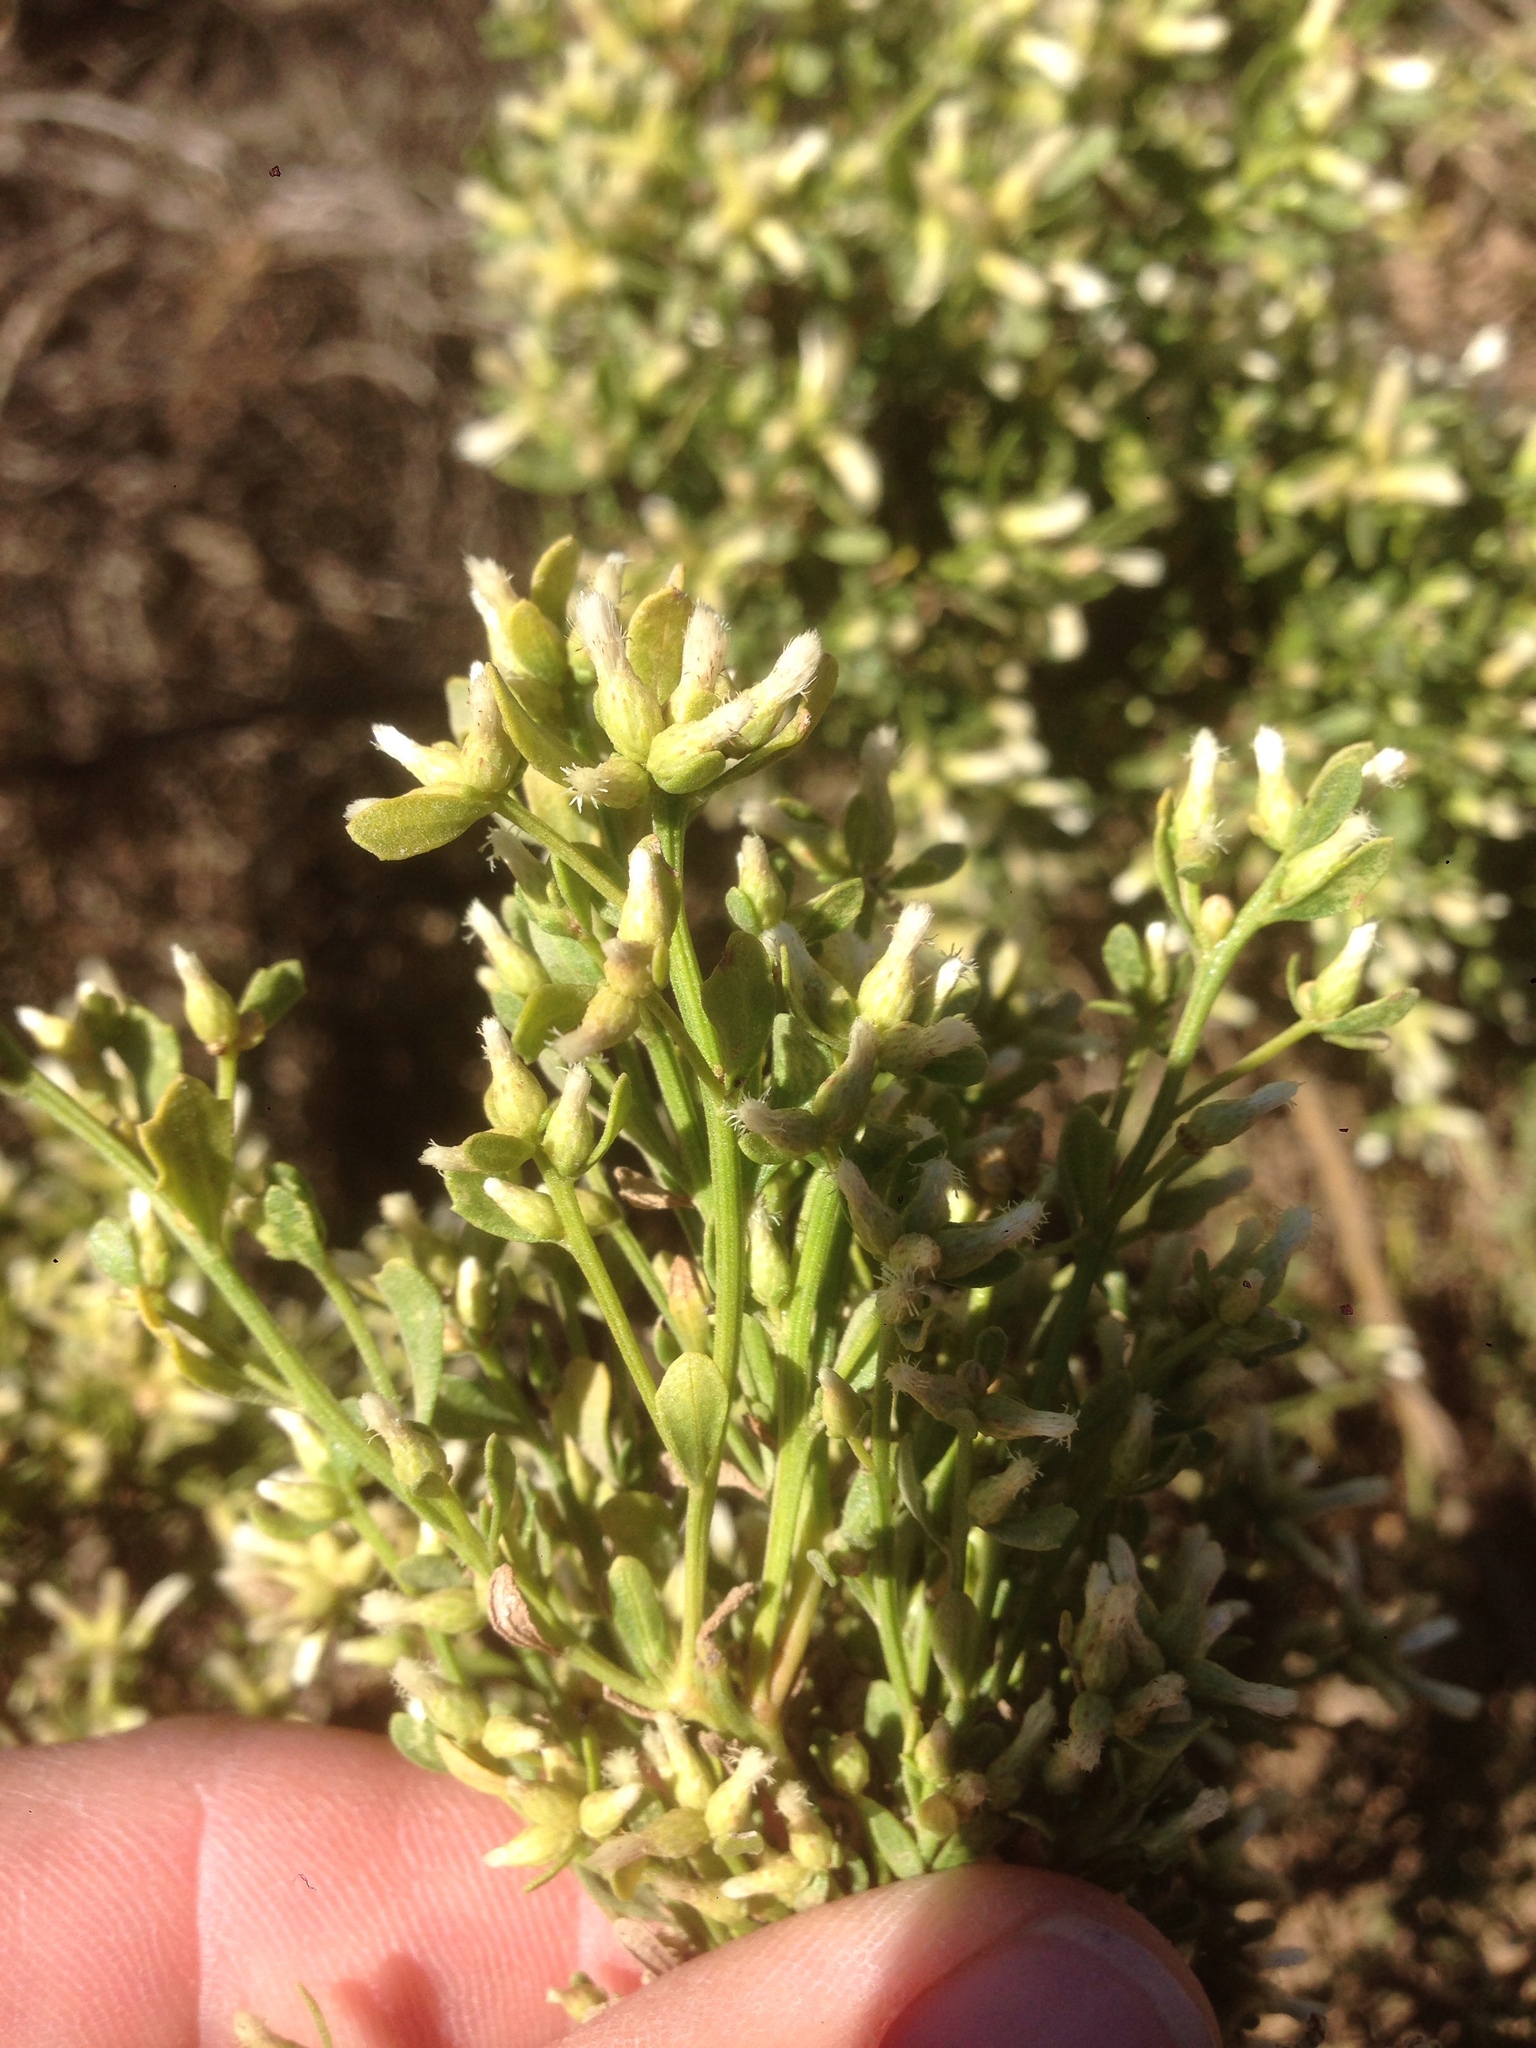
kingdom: Plantae
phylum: Tracheophyta
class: Magnoliopsida
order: Asterales
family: Asteraceae
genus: Baccharis
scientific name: Baccharis pilularis
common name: Coyotebrush
